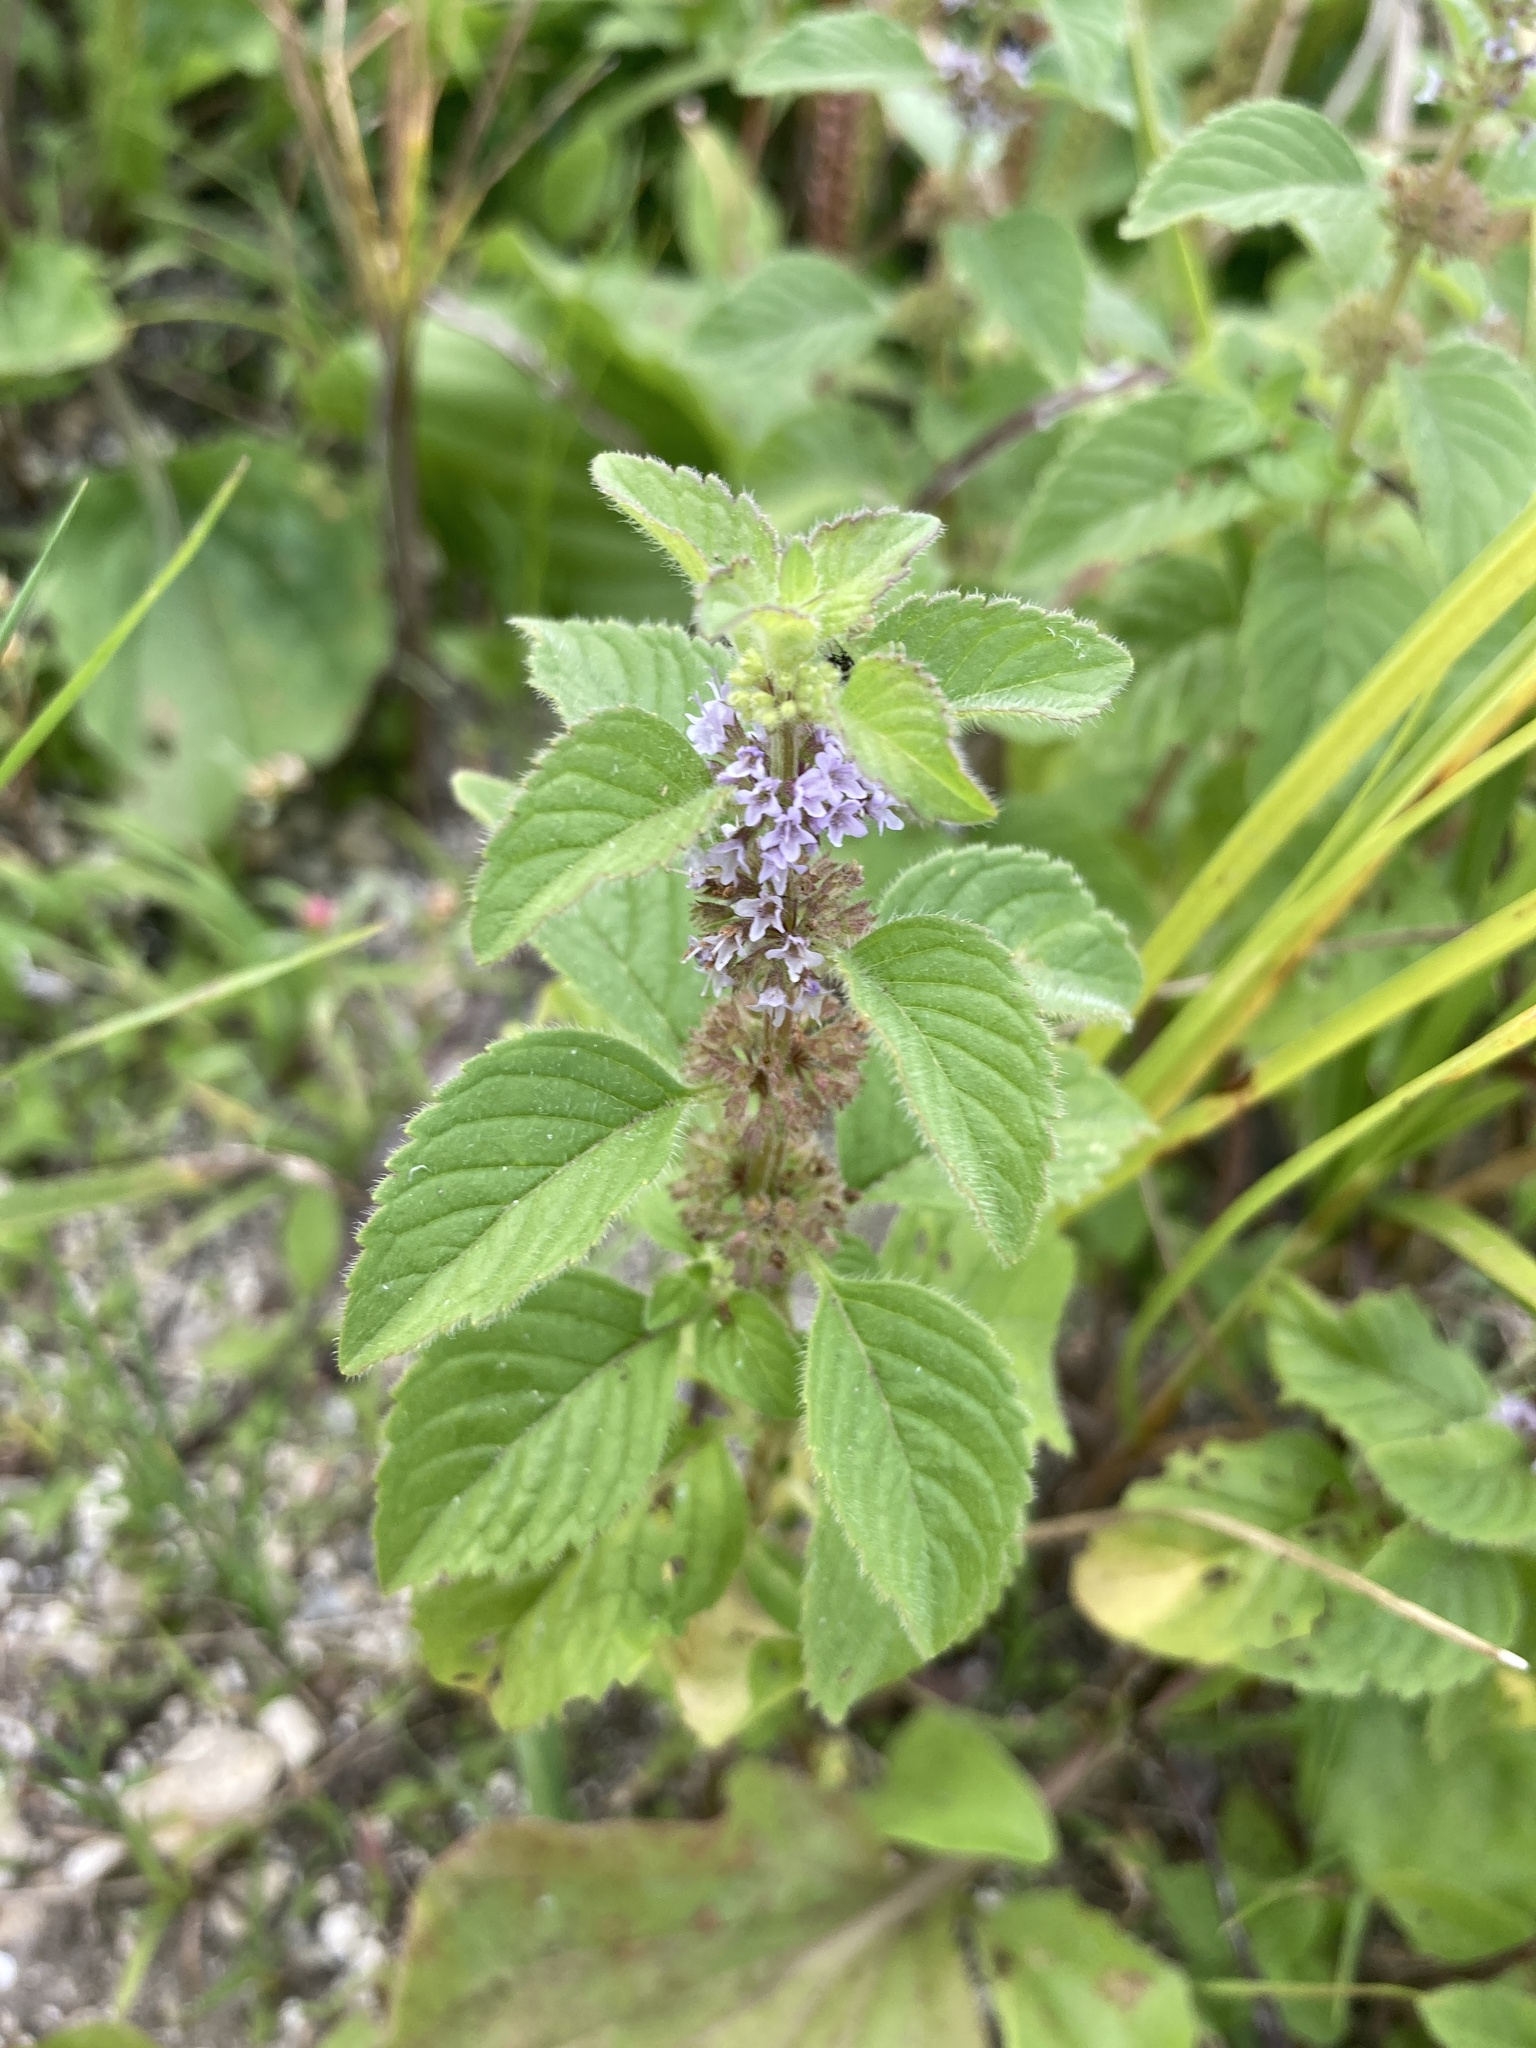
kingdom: Plantae
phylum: Tracheophyta
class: Magnoliopsida
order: Lamiales
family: Lamiaceae
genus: Mentha
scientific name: Mentha arvensis
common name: Corn mint
